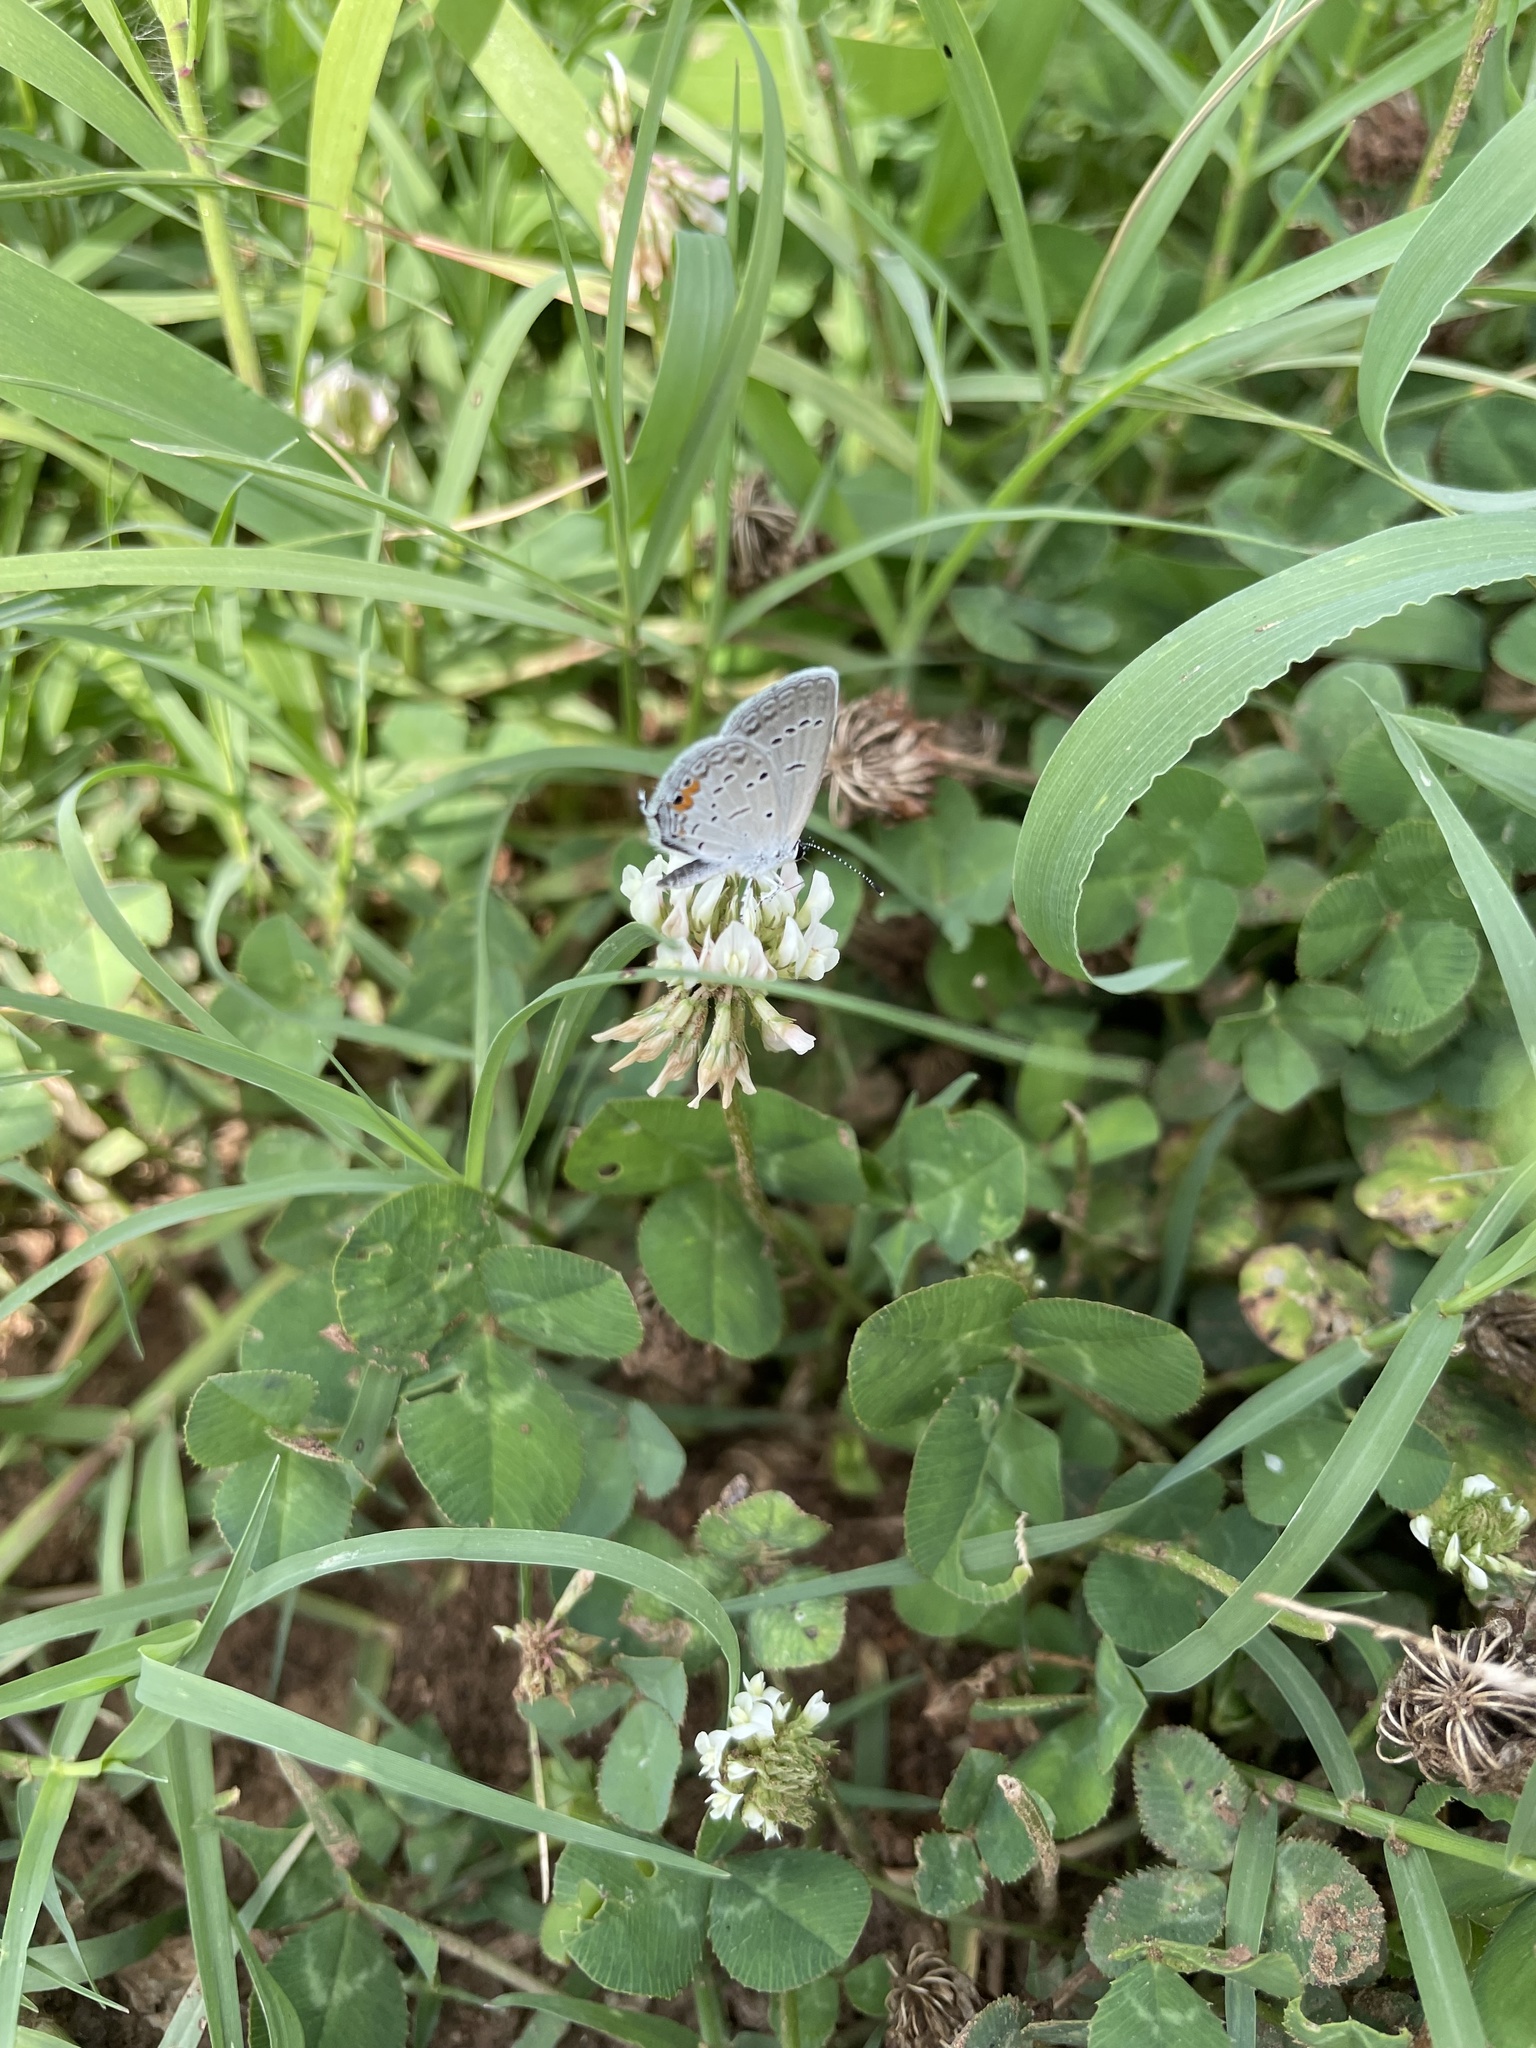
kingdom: Animalia
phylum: Arthropoda
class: Insecta
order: Lepidoptera
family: Lycaenidae
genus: Elkalyce
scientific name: Elkalyce comyntas
